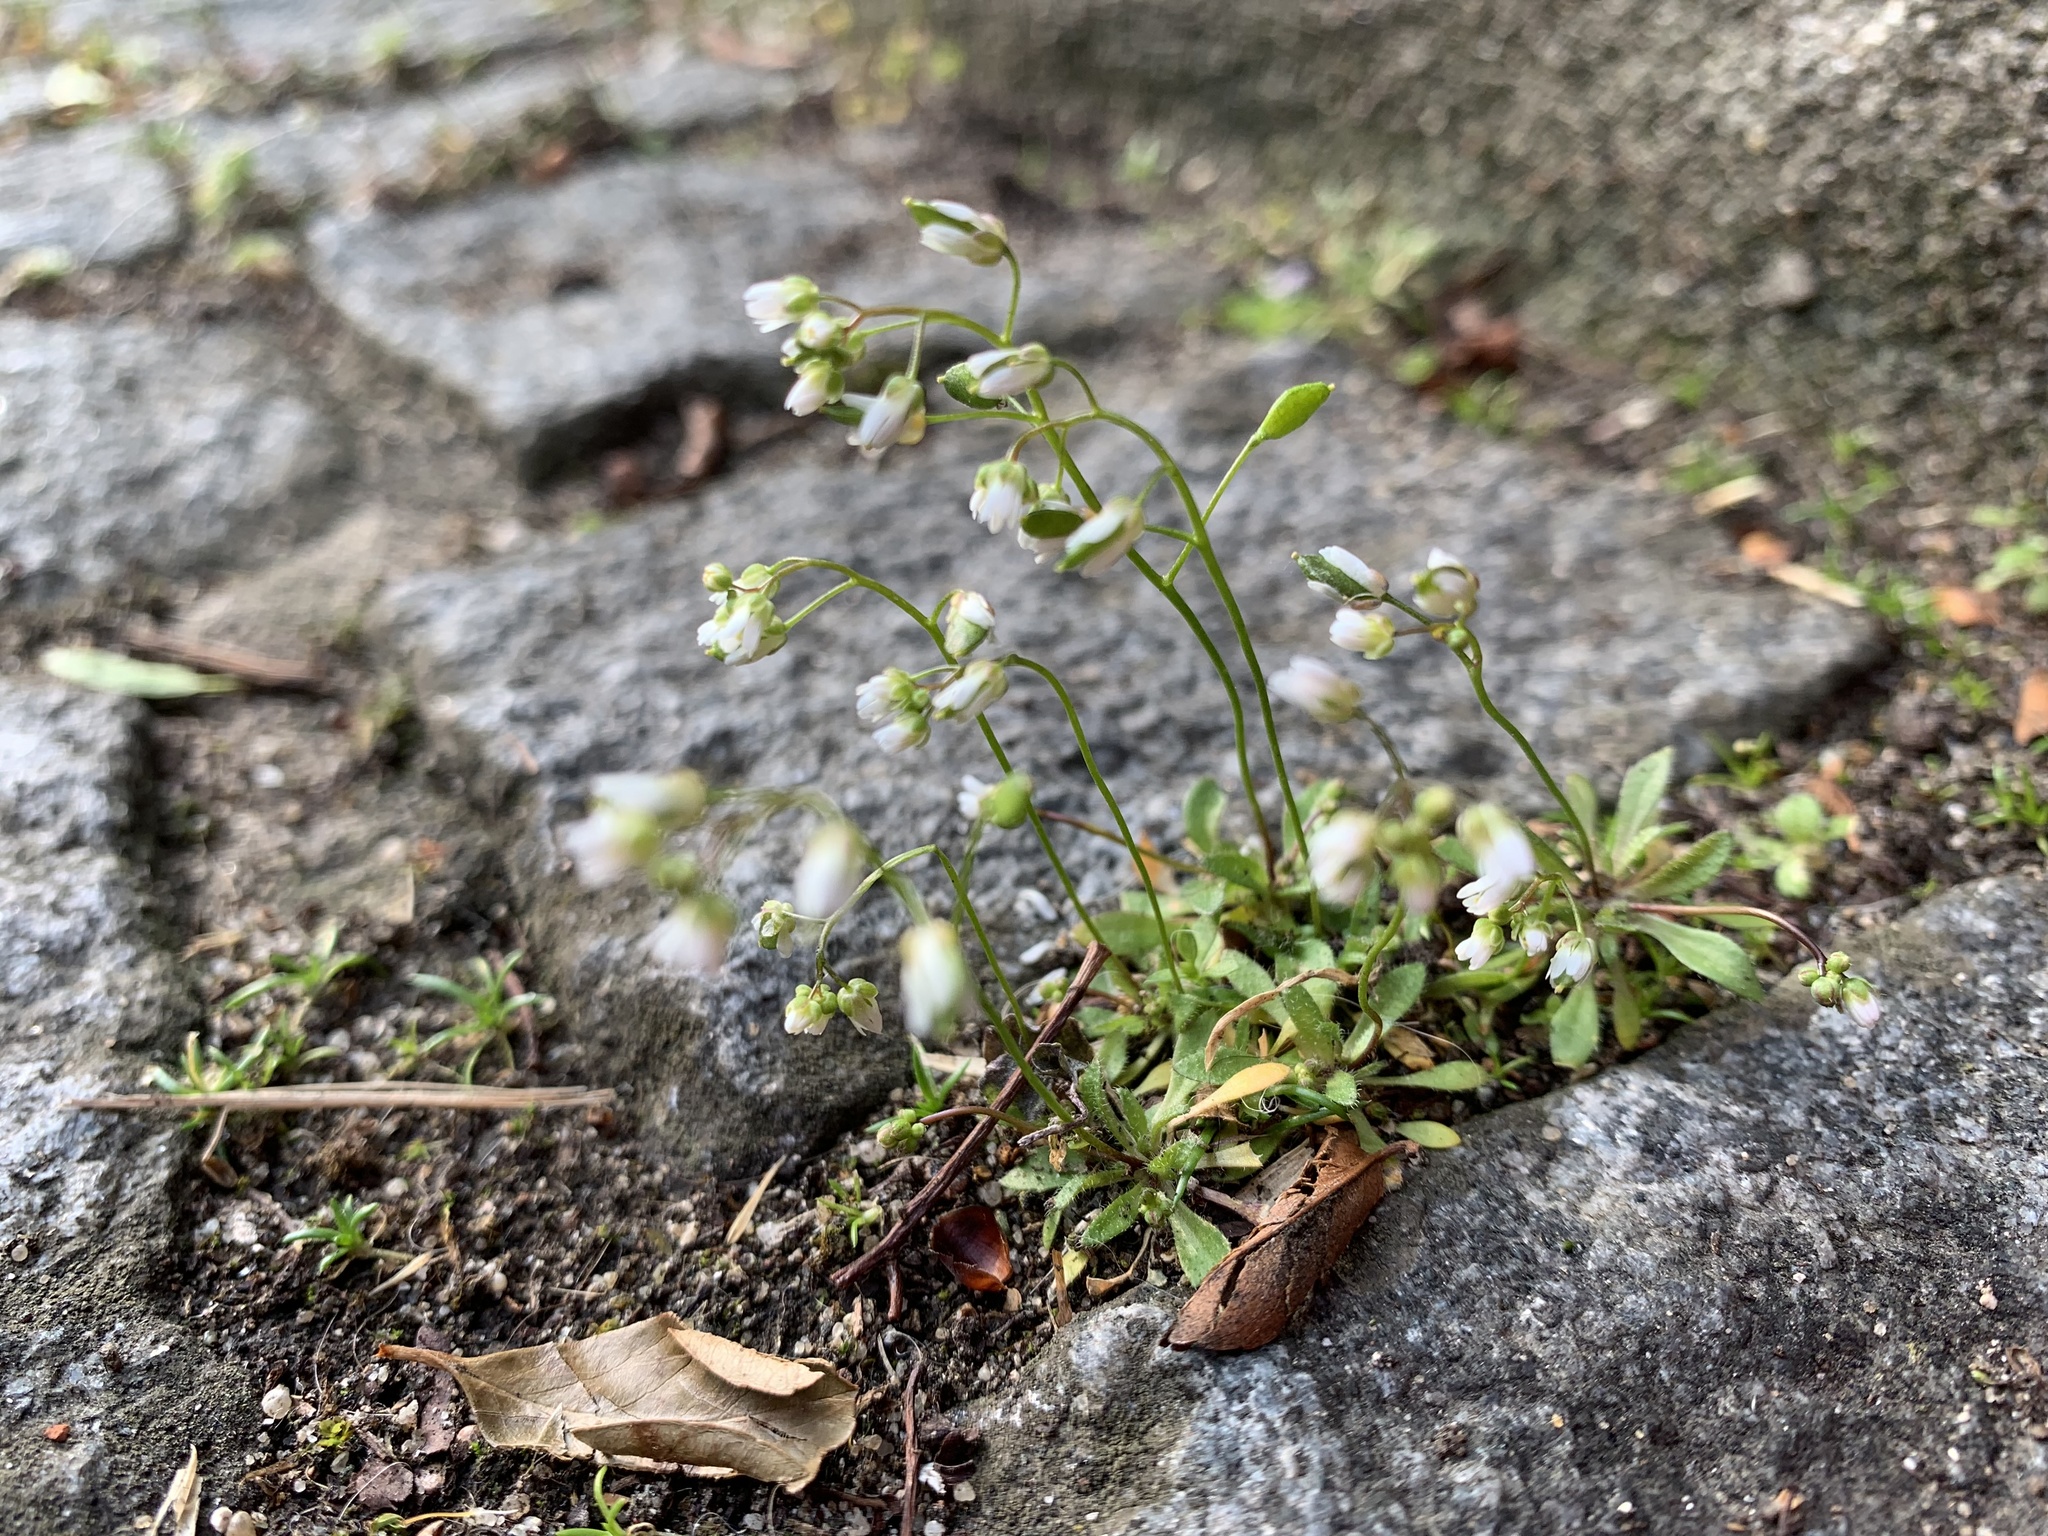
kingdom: Plantae
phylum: Tracheophyta
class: Magnoliopsida
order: Brassicales
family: Brassicaceae
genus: Draba
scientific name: Draba verna
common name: Spring draba
